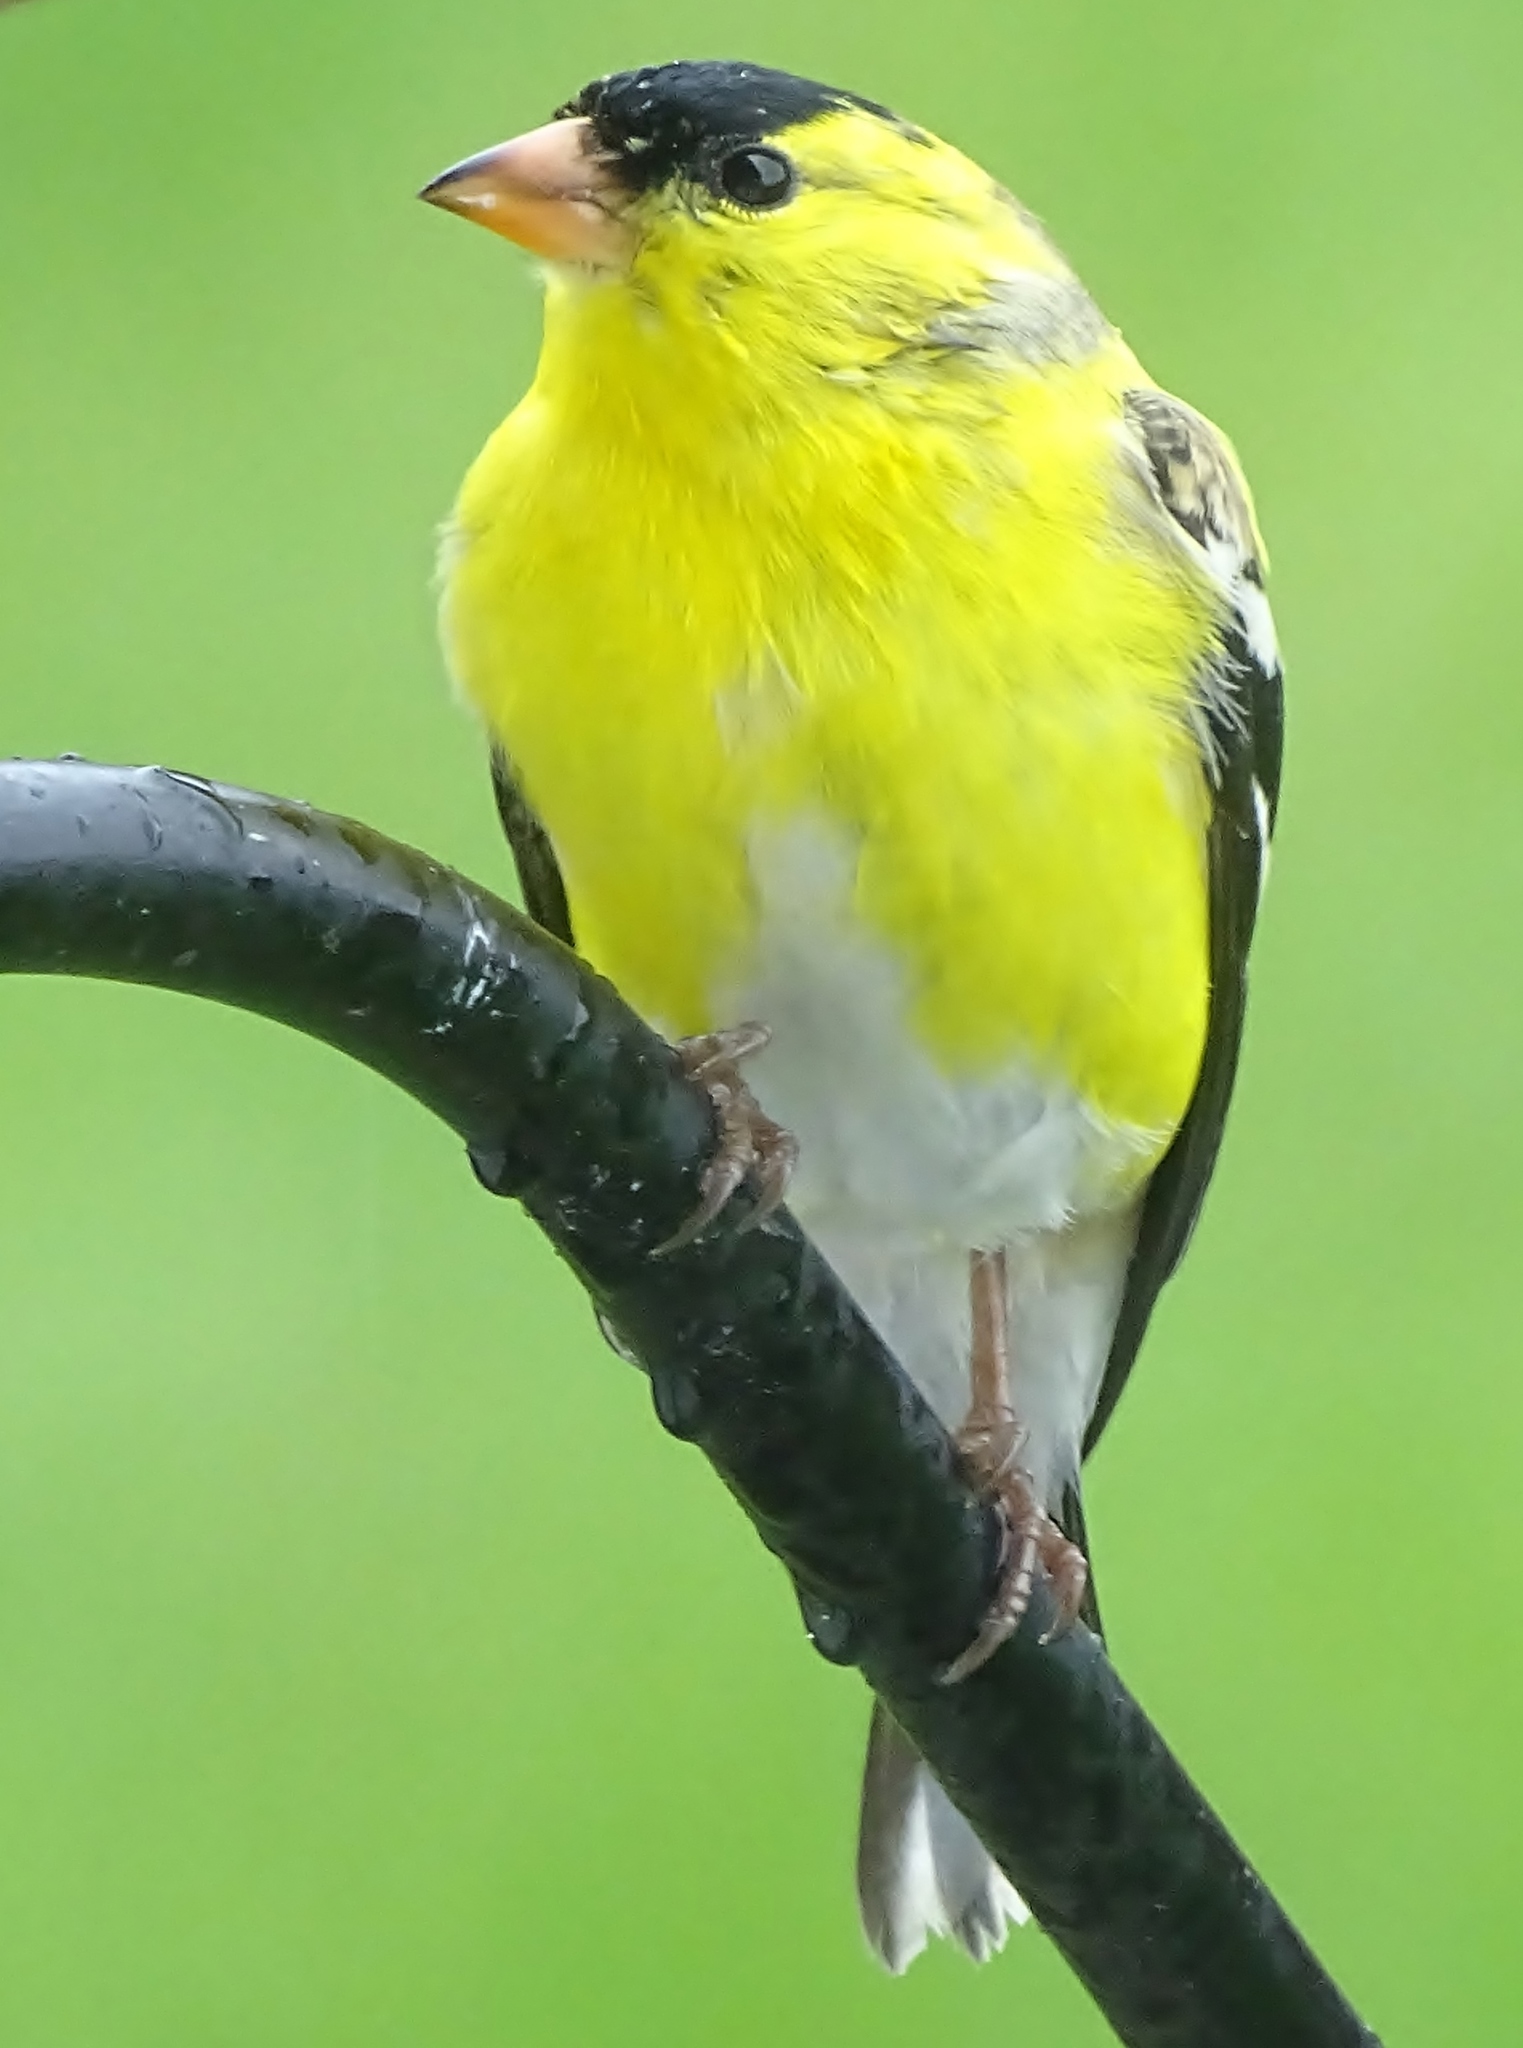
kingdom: Animalia
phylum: Chordata
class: Aves
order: Passeriformes
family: Fringillidae
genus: Spinus
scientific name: Spinus tristis
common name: American goldfinch
